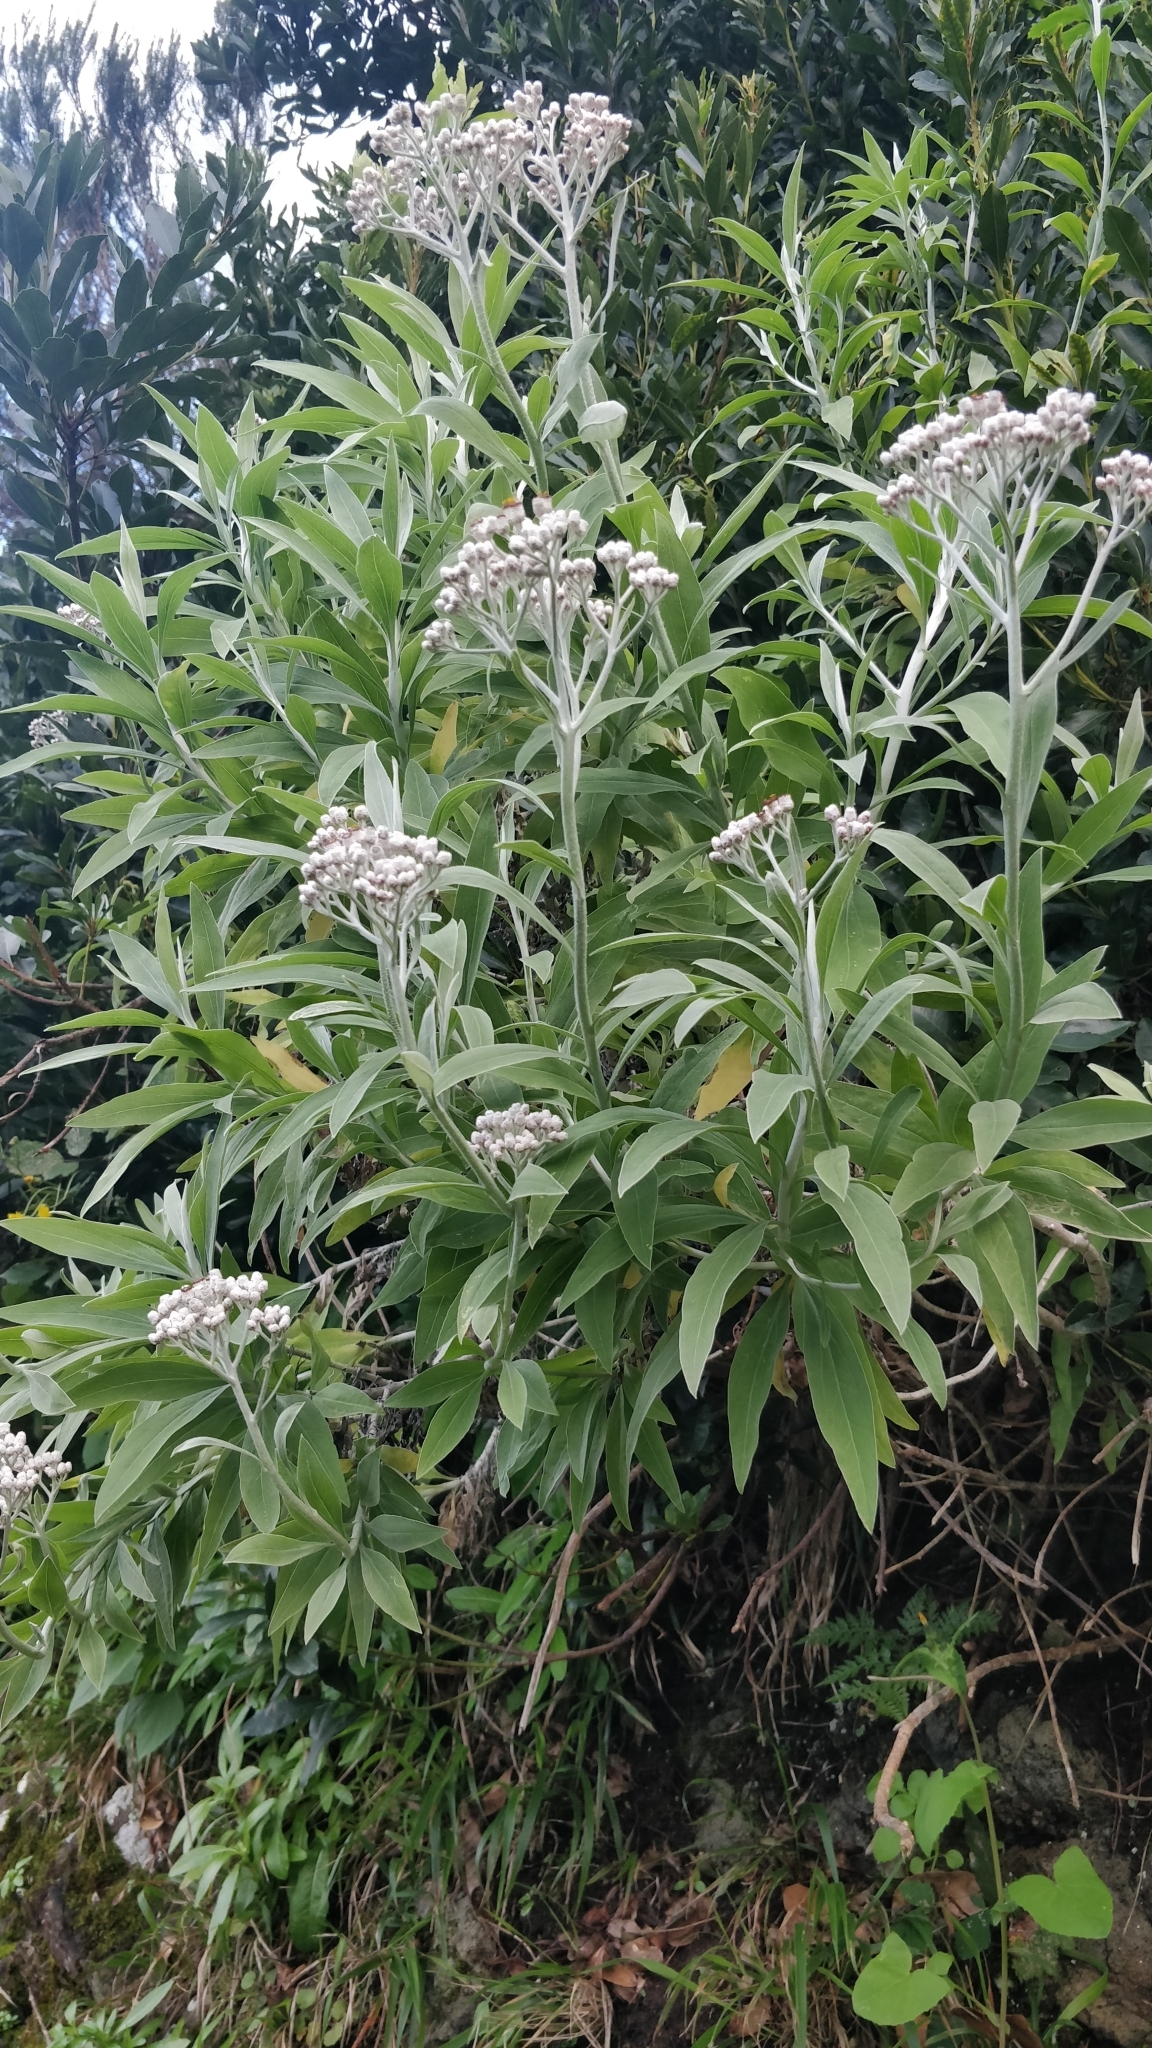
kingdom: Plantae
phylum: Tracheophyta
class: Magnoliopsida
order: Asterales
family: Asteraceae
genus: Helichrysum
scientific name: Helichrysum melaleucum
